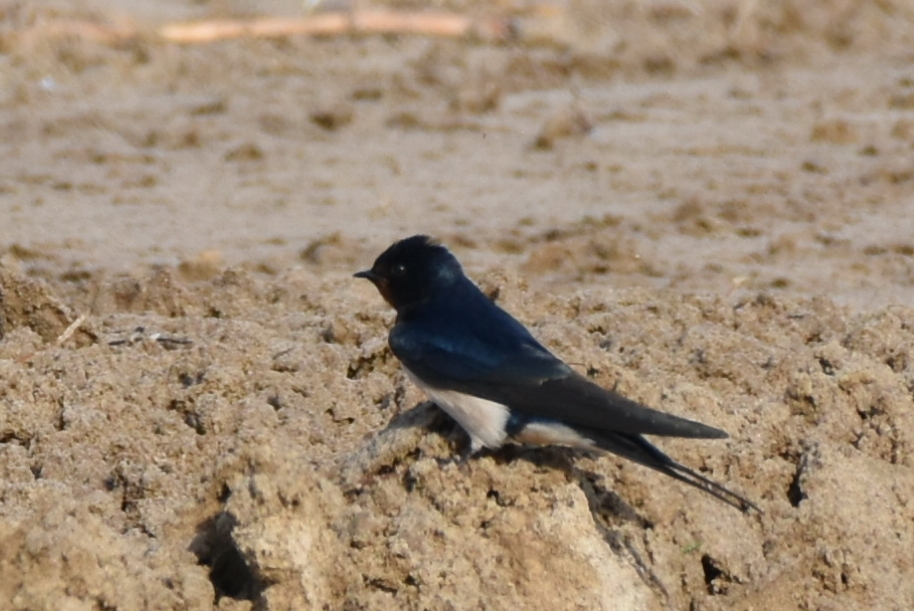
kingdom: Animalia
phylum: Chordata
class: Aves
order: Passeriformes
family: Hirundinidae
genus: Hirundo
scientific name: Hirundo rustica
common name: Barn swallow
